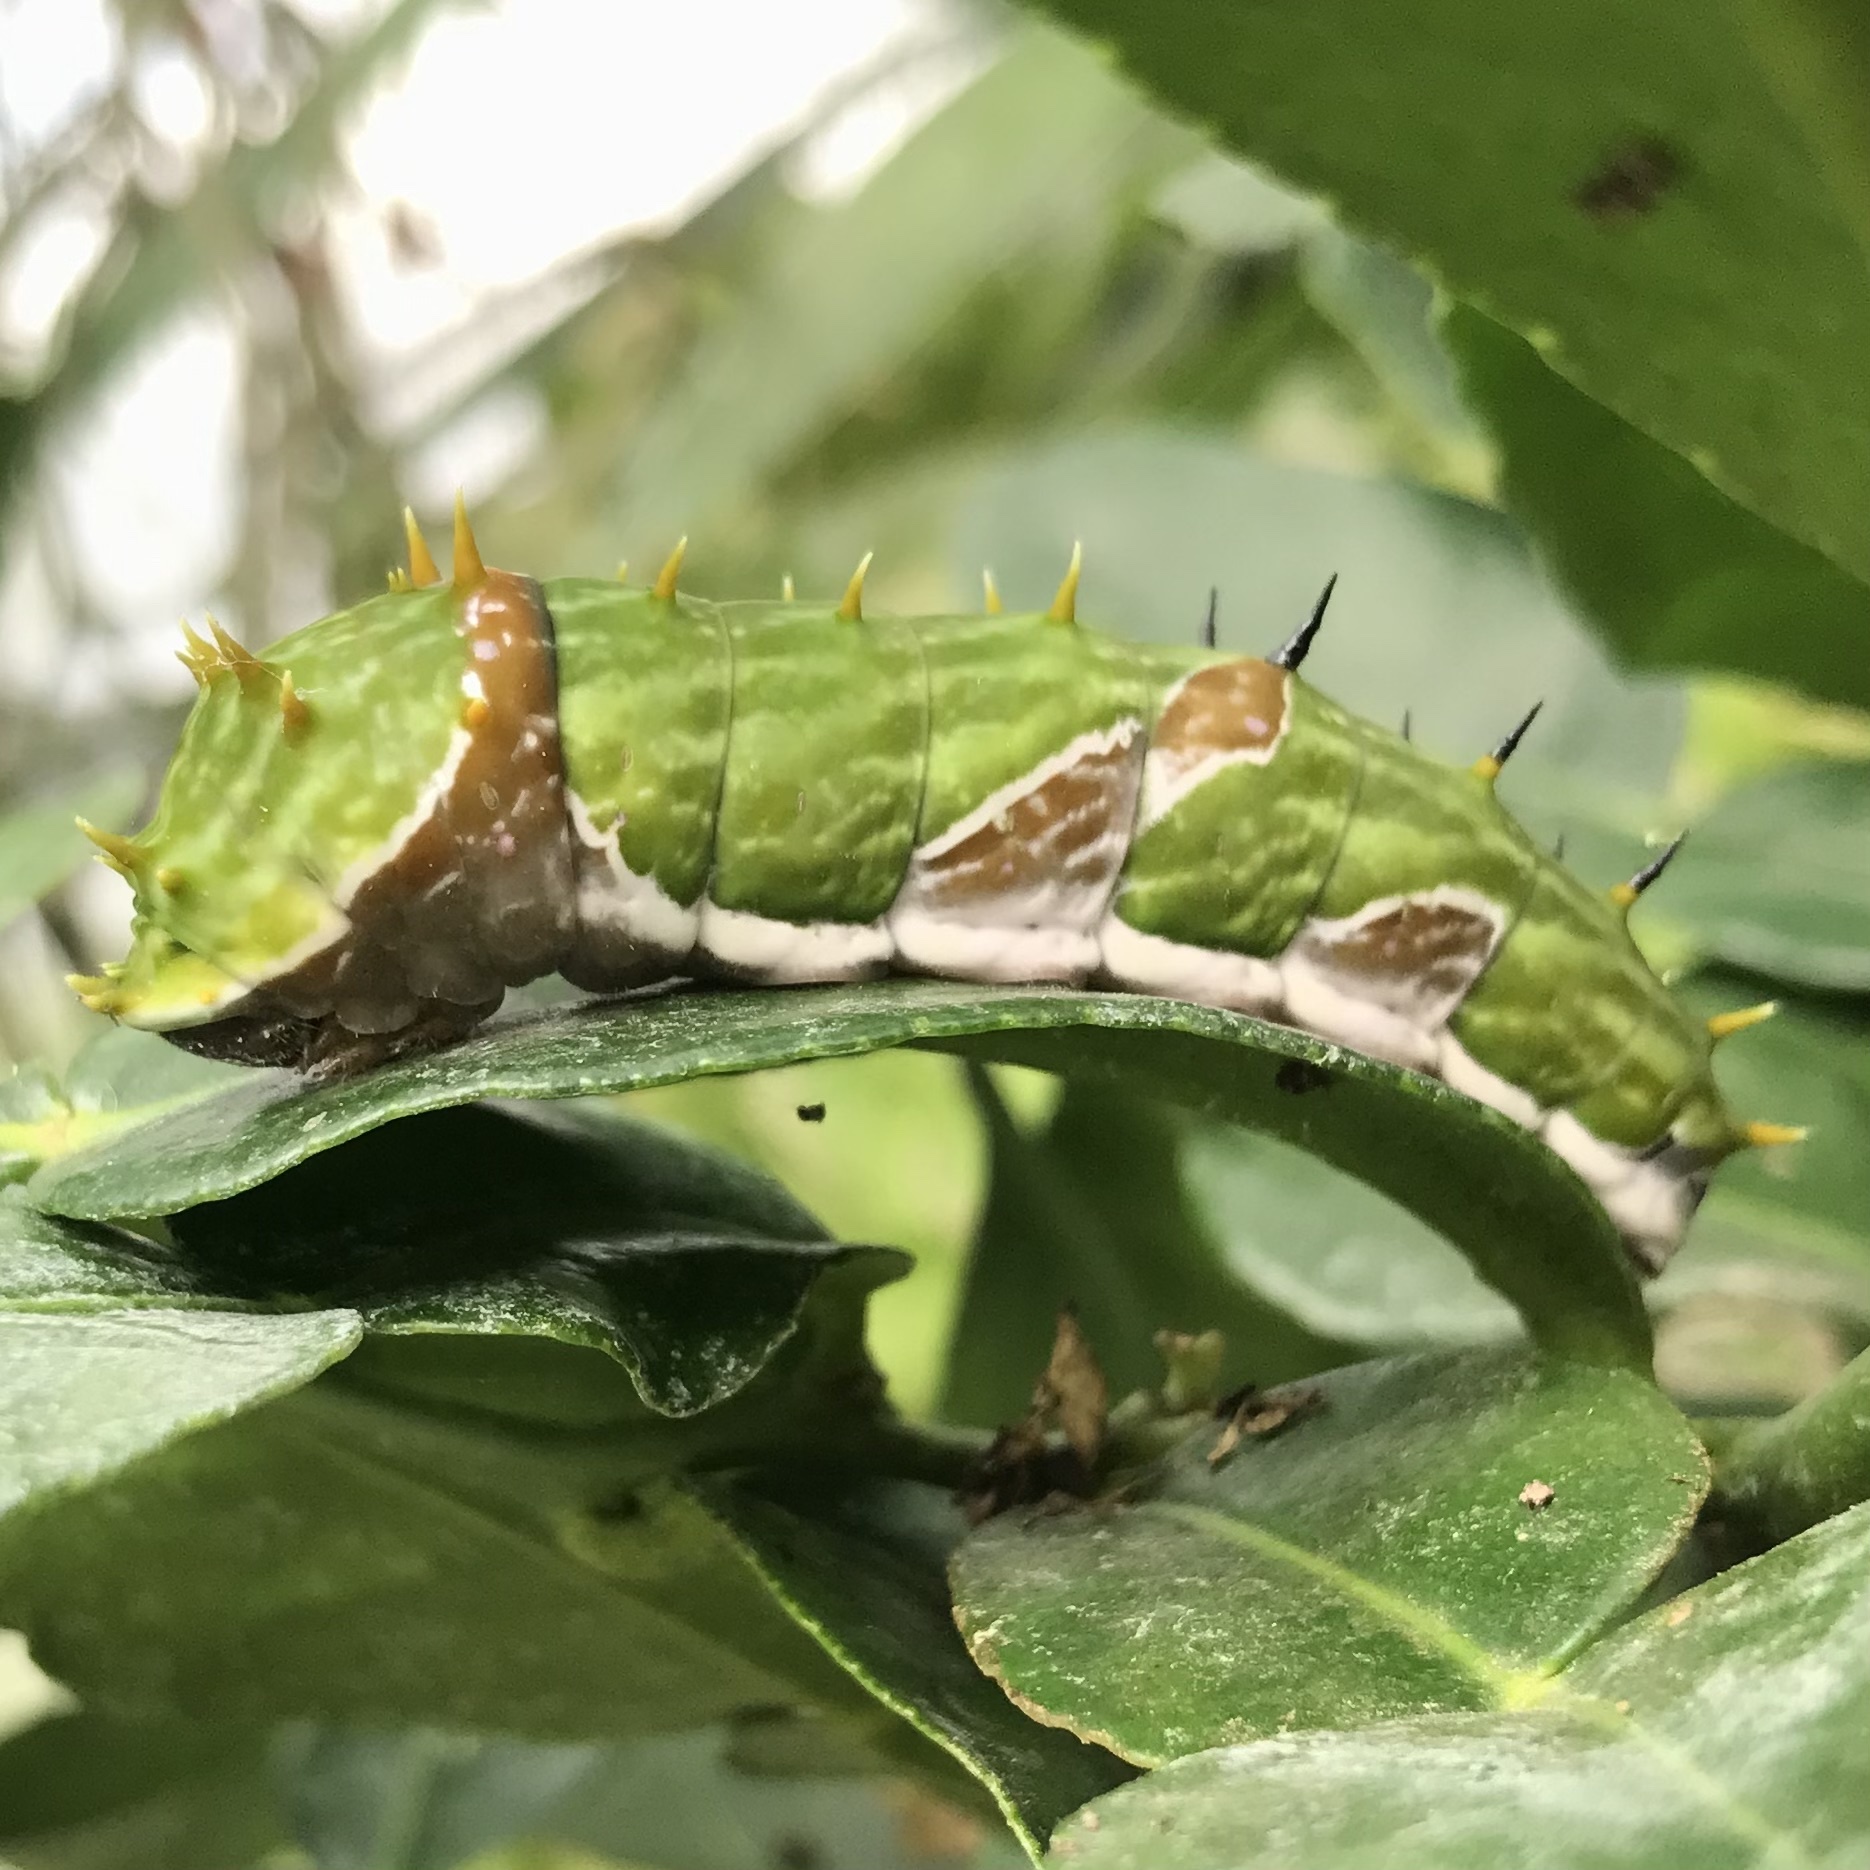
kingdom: Animalia
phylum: Arthropoda
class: Insecta
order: Lepidoptera
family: Papilionidae
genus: Papilio
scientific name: Papilio aegeus
